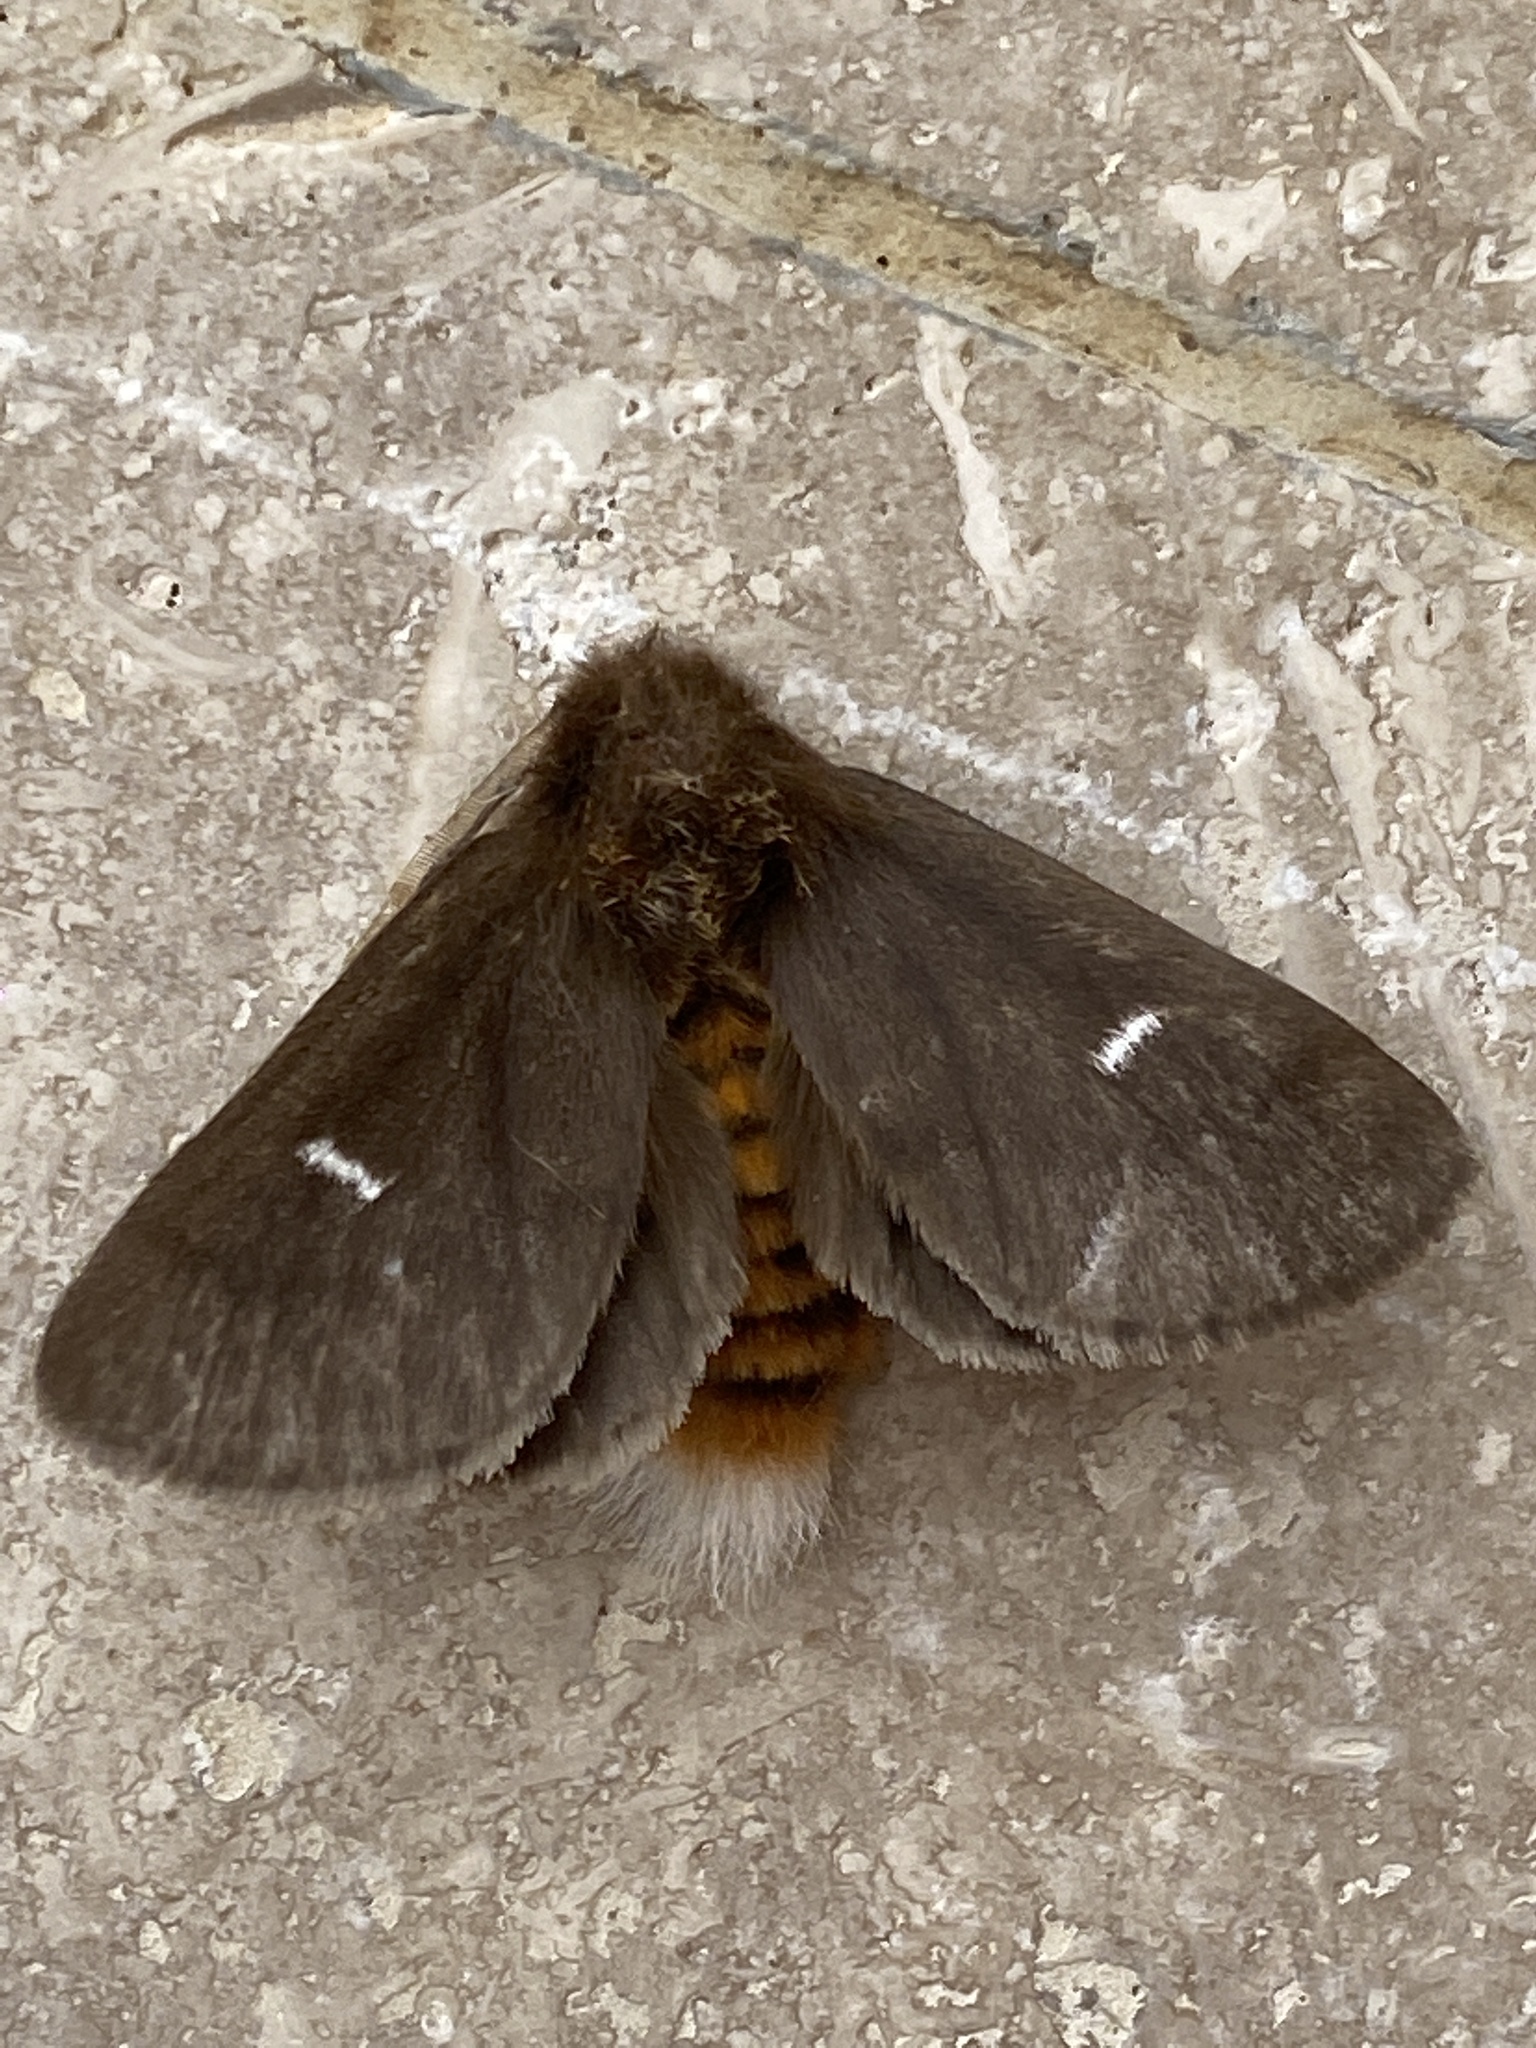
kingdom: Animalia
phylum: Arthropoda
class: Insecta
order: Lepidoptera
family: Notodontidae
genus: Ochrogaster
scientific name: Ochrogaster lunifer
